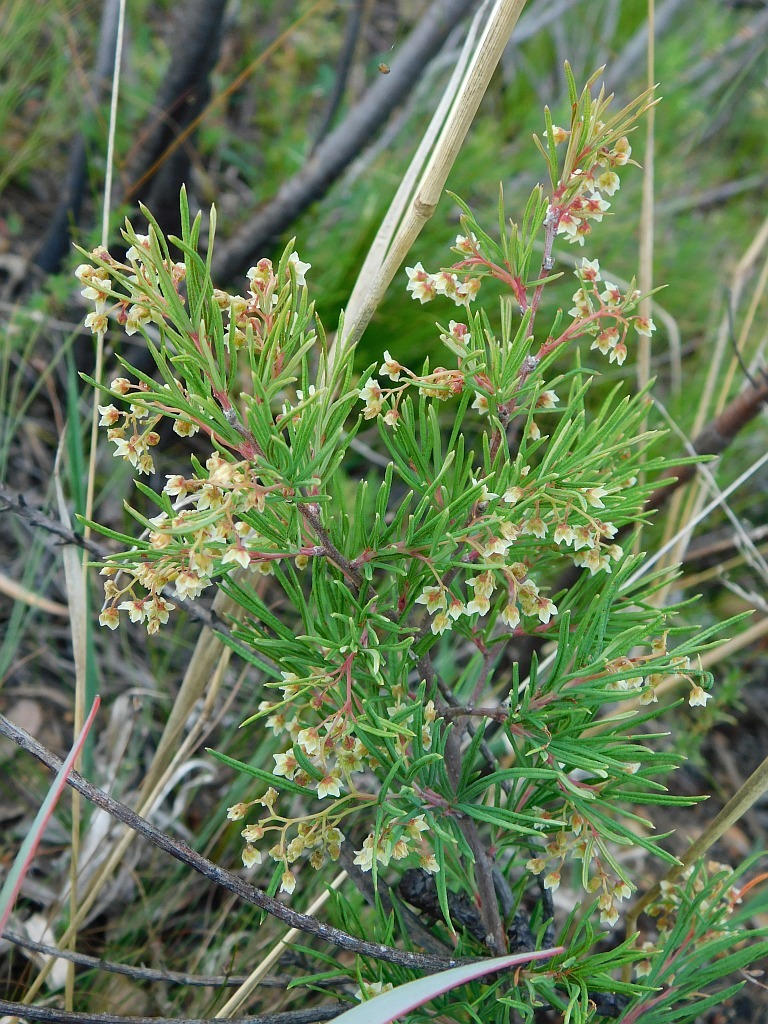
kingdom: Plantae
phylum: Tracheophyta
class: Magnoliopsida
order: Sapindales
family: Anacardiaceae
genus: Searsia
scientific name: Searsia rosmarinifolia
